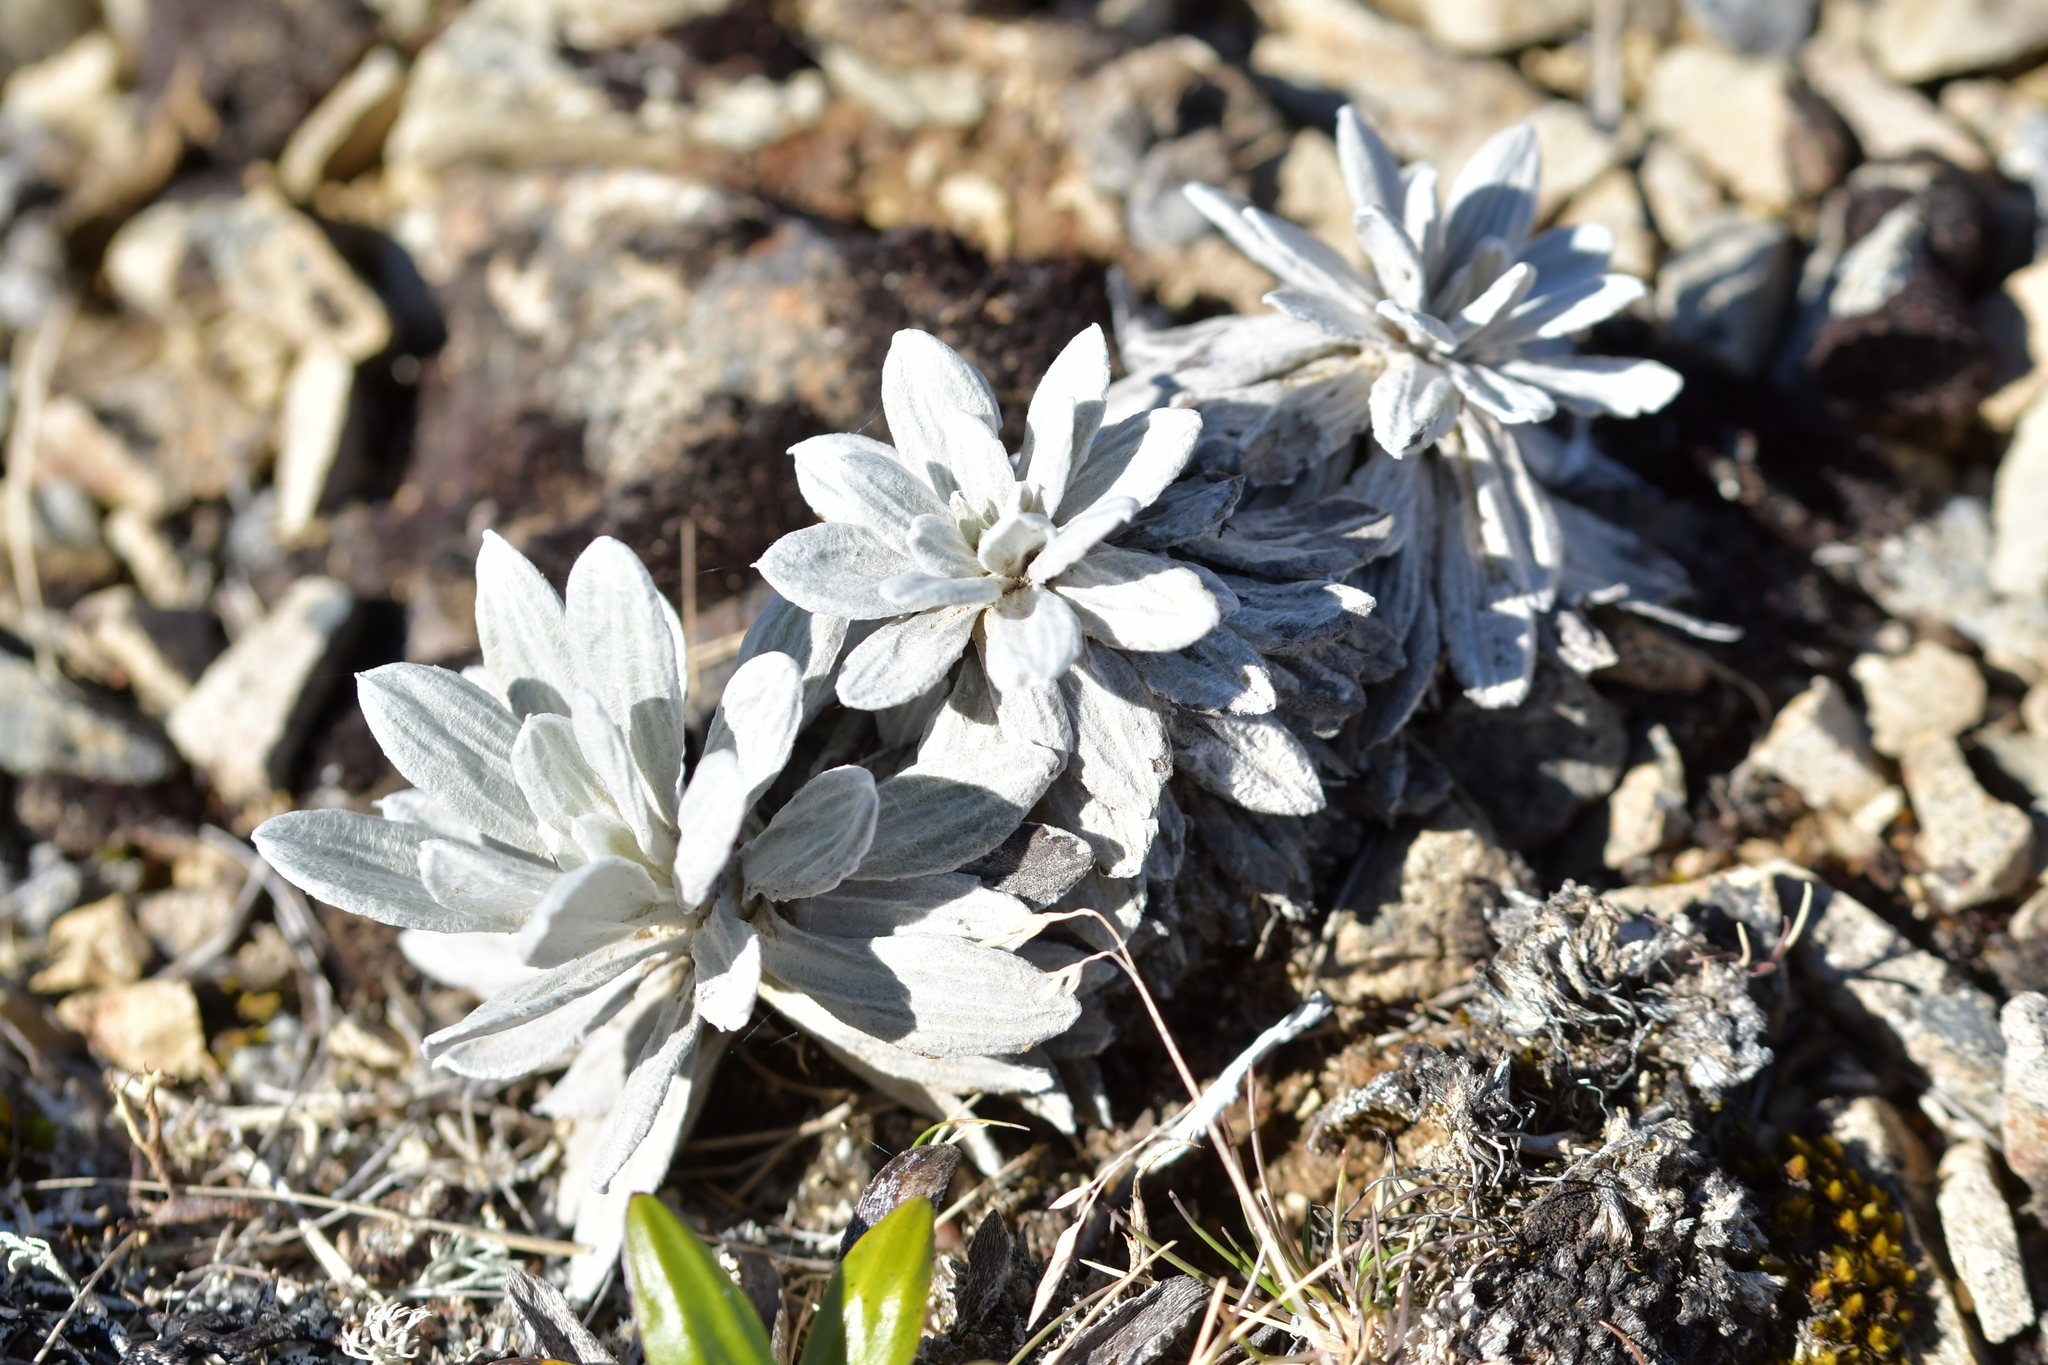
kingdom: Plantae
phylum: Tracheophyta
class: Magnoliopsida
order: Asterales
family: Asteraceae
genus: Celmisia
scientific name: Celmisia incana
